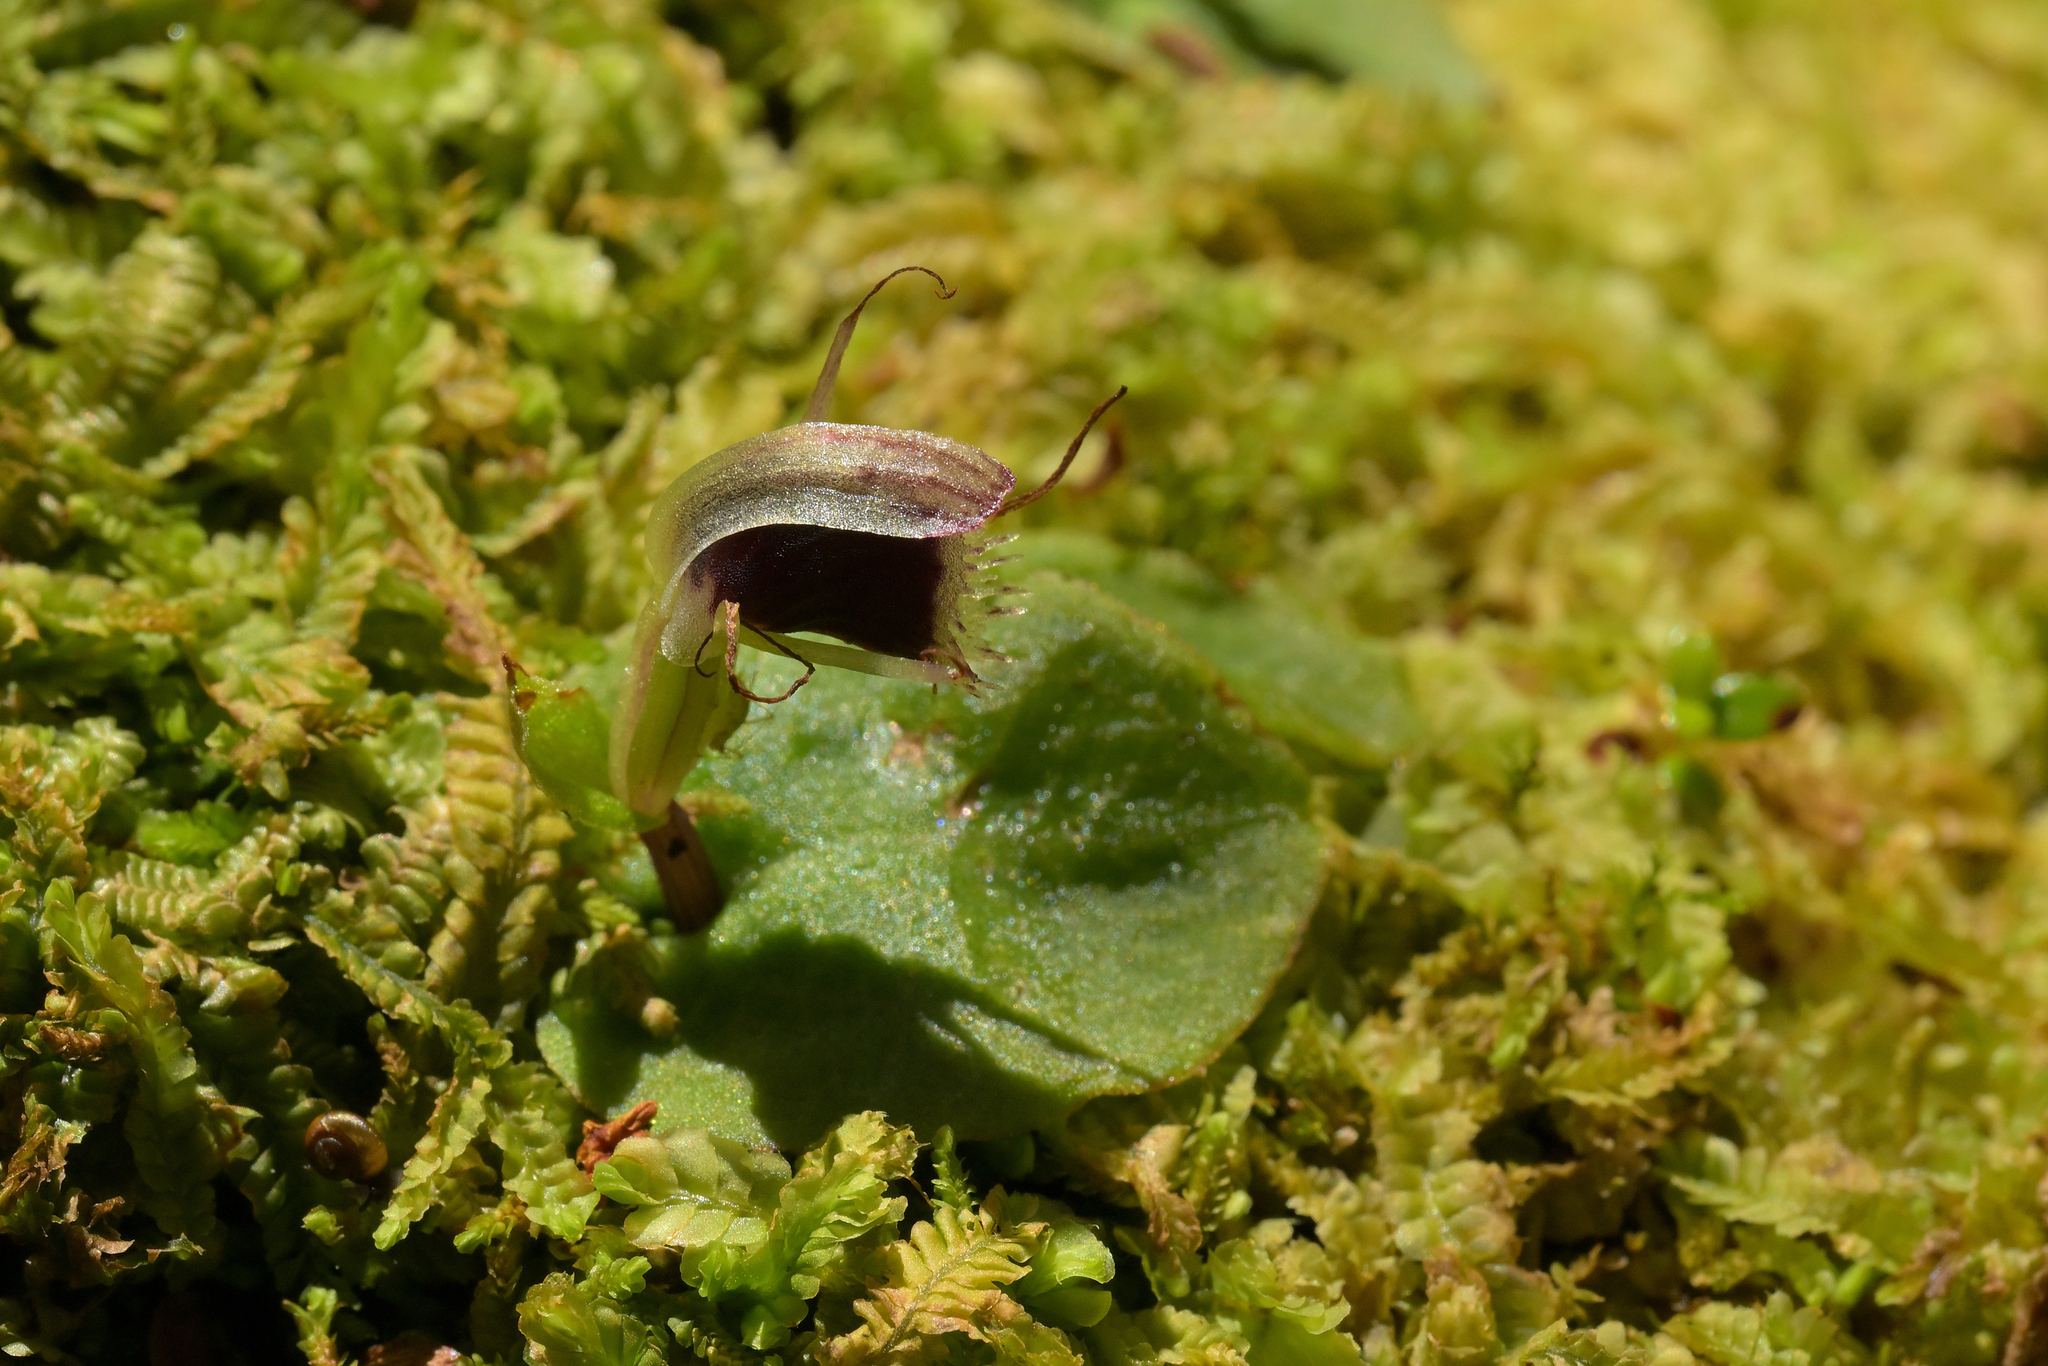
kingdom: Plantae
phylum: Tracheophyta
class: Liliopsida
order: Asparagales
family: Orchidaceae
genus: Corybas
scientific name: Corybas oblongus
